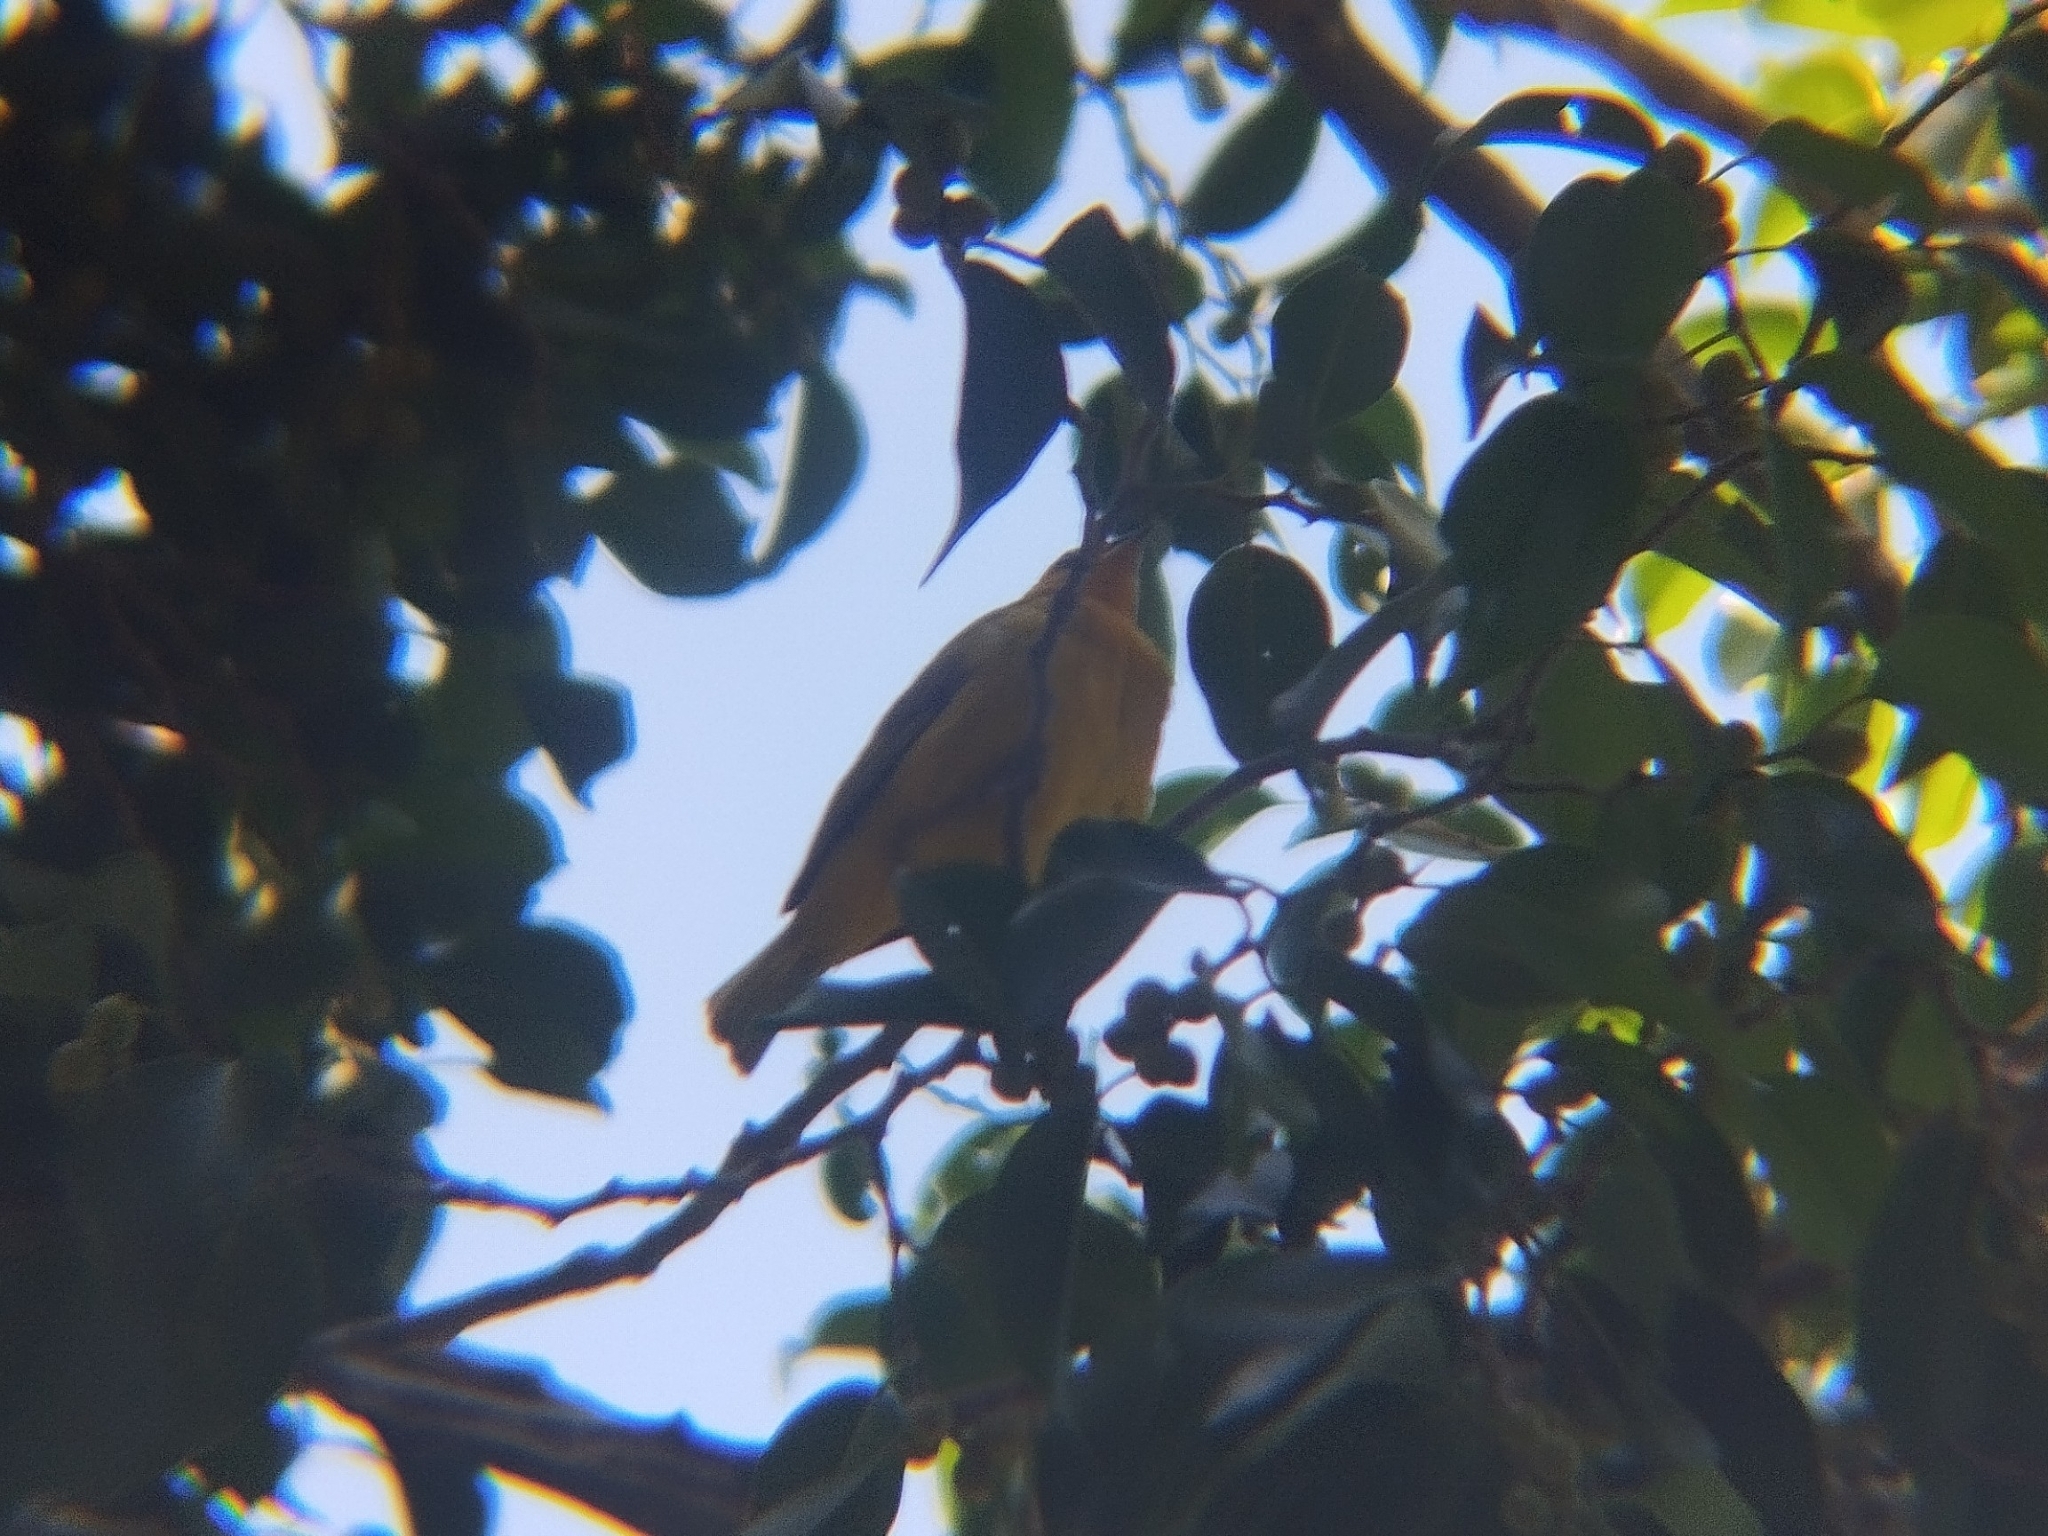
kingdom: Animalia
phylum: Chordata
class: Aves
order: Passeriformes
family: Thraupidae
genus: Sicalis
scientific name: Sicalis flaveola
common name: Saffron finch
